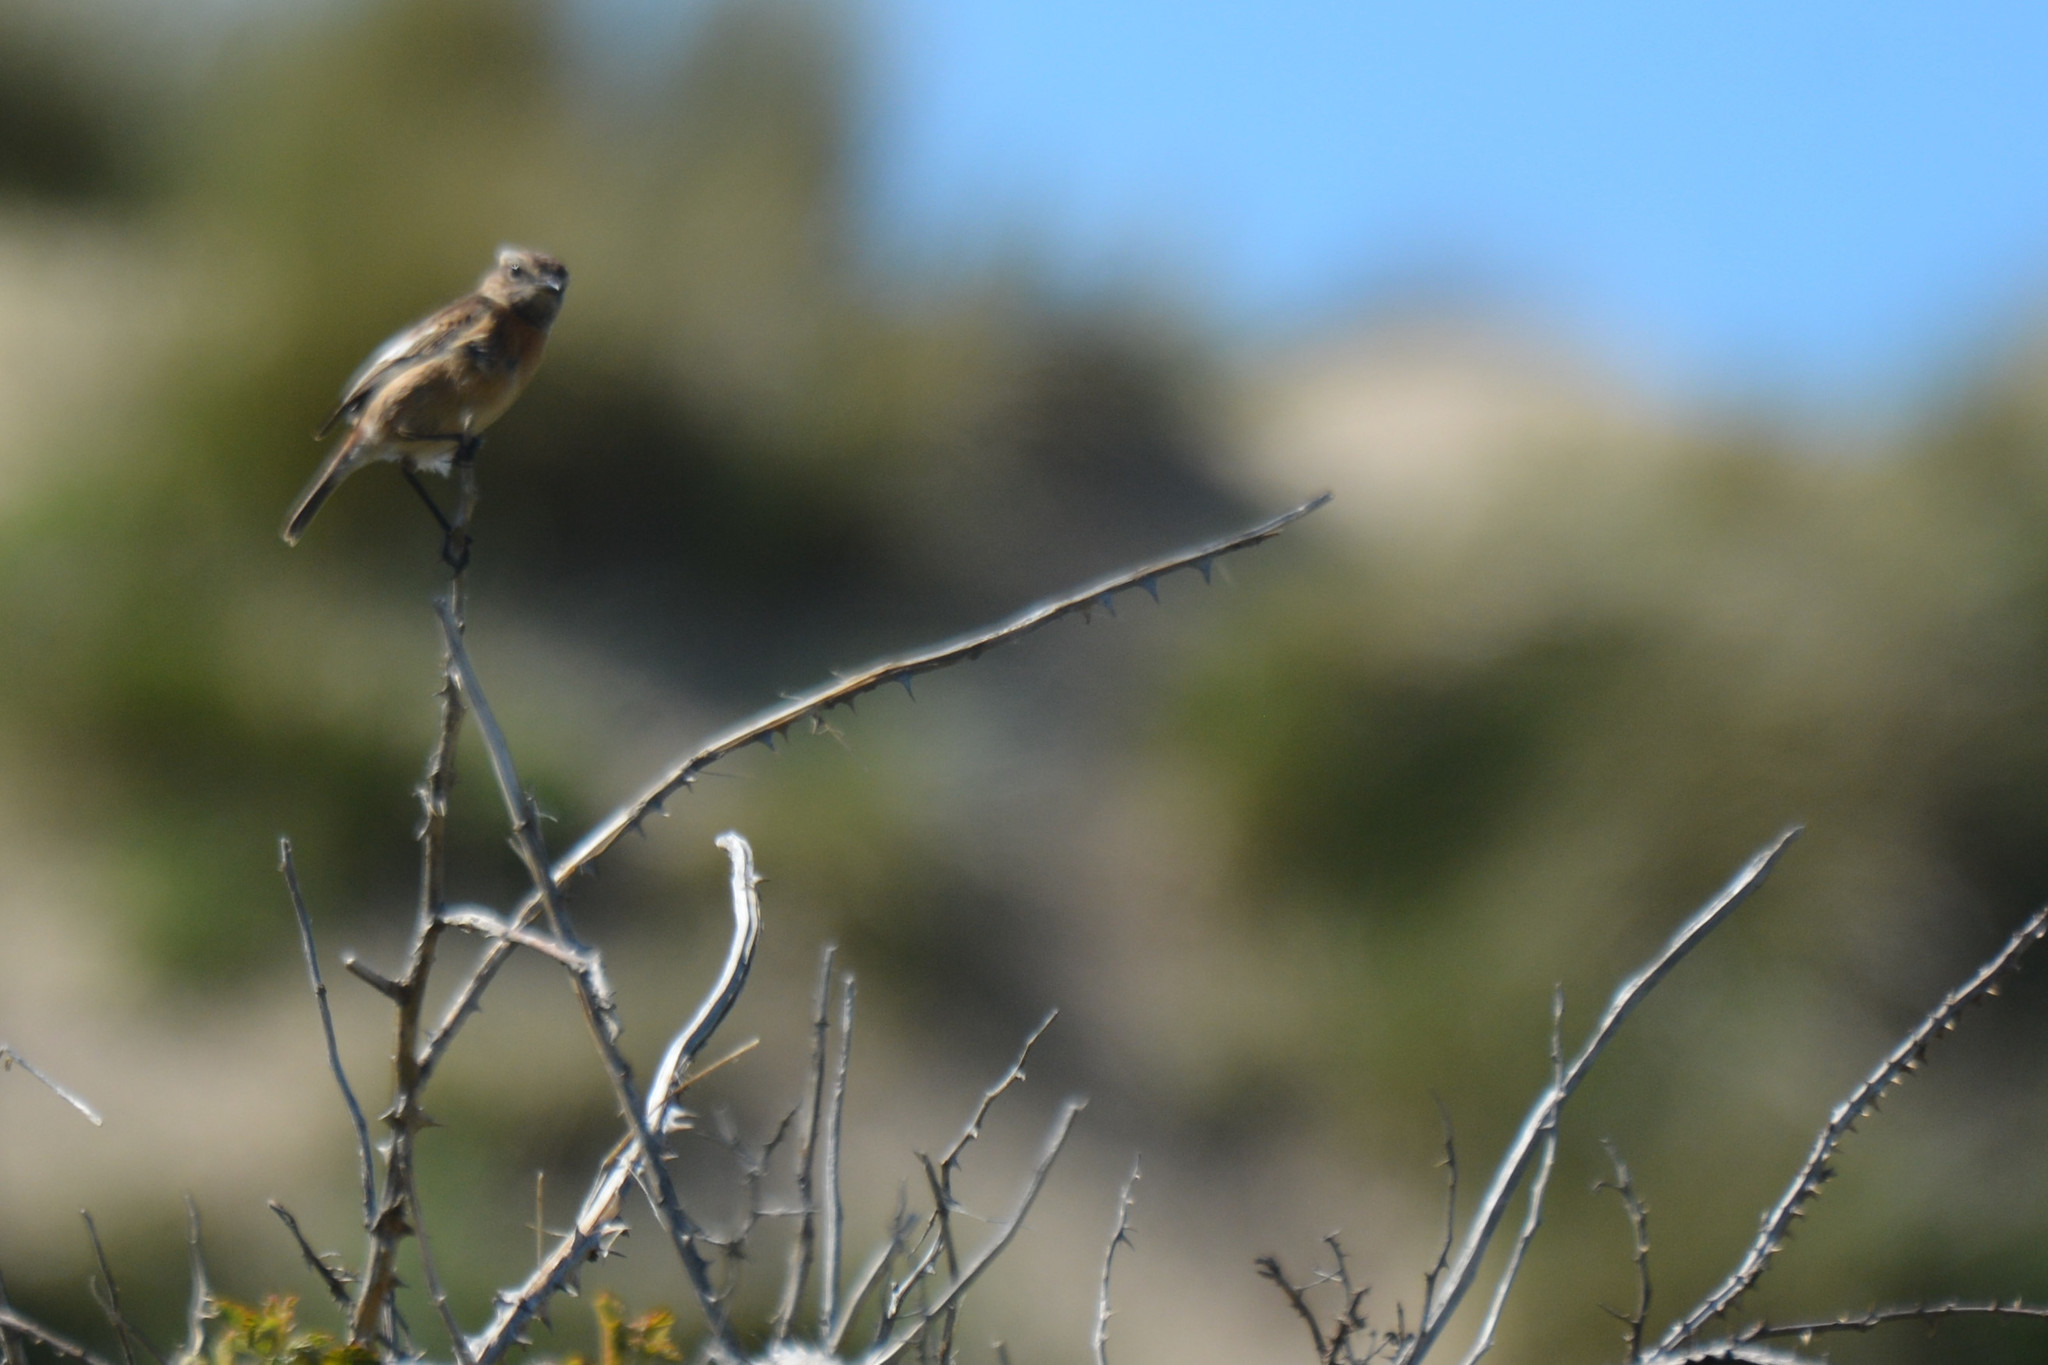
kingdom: Animalia
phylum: Chordata
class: Aves
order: Passeriformes
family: Muscicapidae
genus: Saxicola
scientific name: Saxicola rubicola
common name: European stonechat
